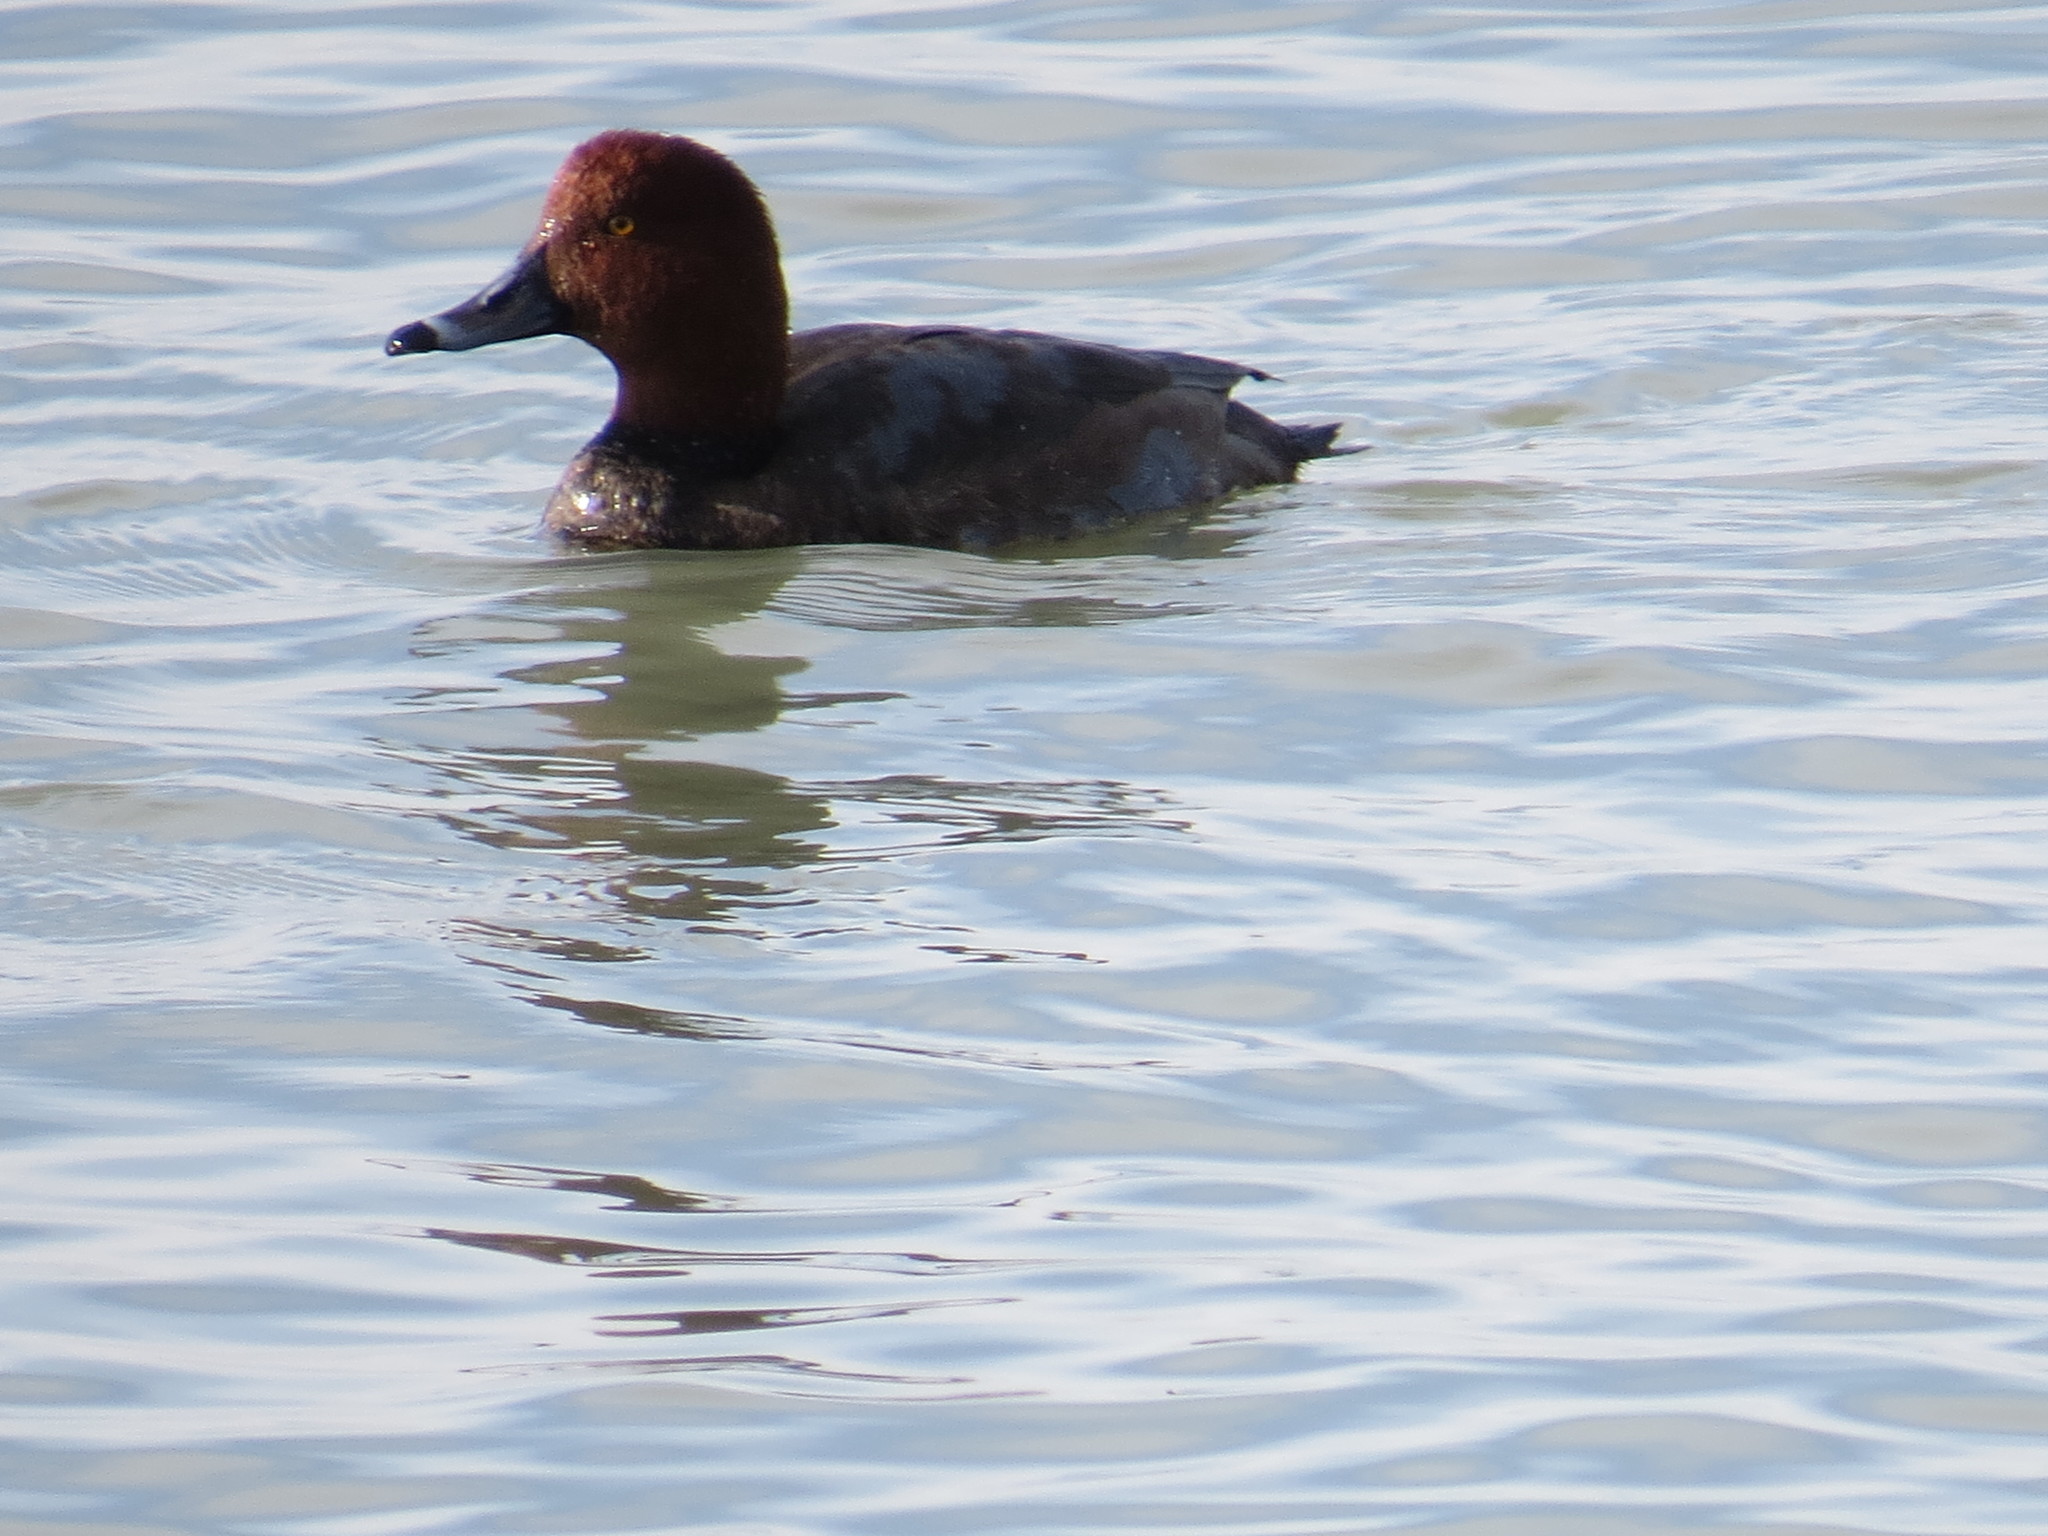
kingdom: Animalia
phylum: Chordata
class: Aves
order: Anseriformes
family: Anatidae
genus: Aythya
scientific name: Aythya americana
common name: Redhead
